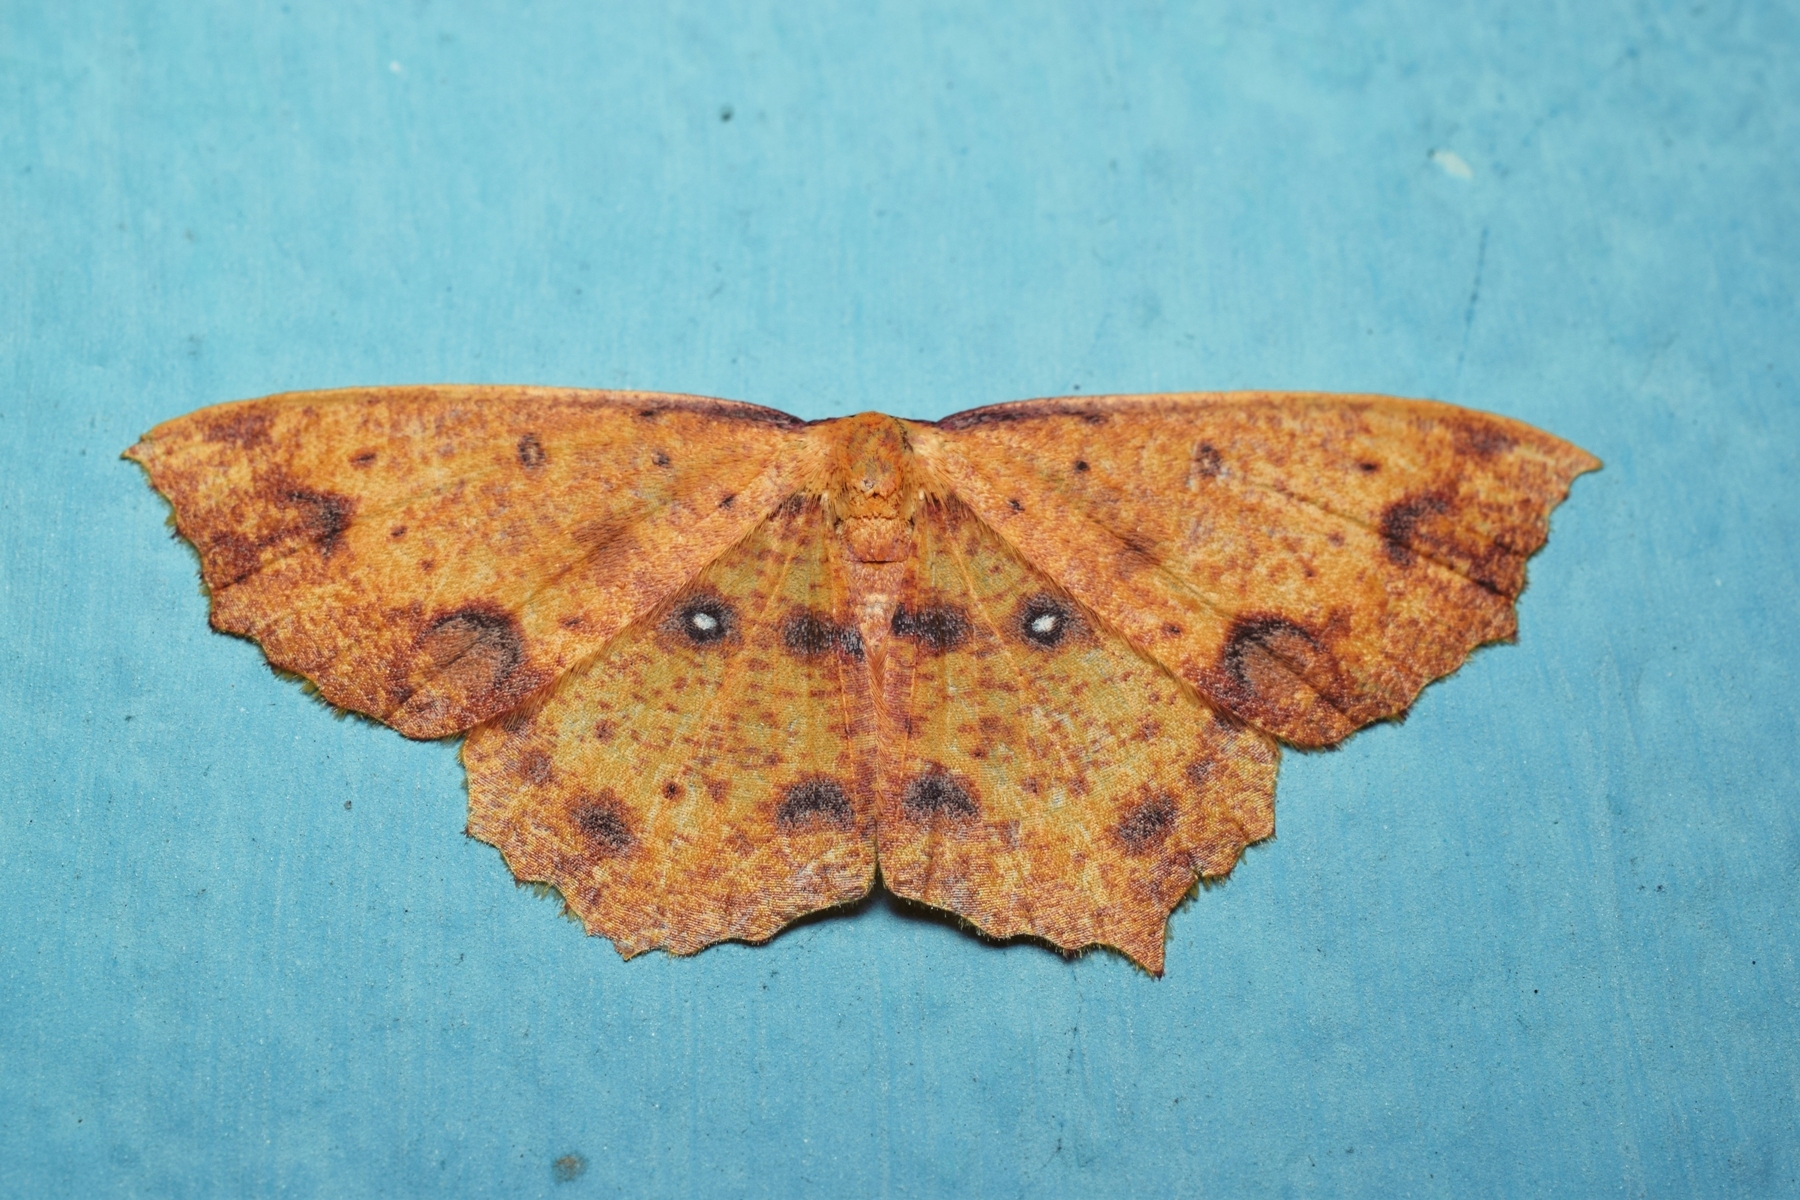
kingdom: Animalia
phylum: Arthropoda
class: Insecta
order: Lepidoptera
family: Geometridae
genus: Synegiodes
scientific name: Synegiodes histrionaria
